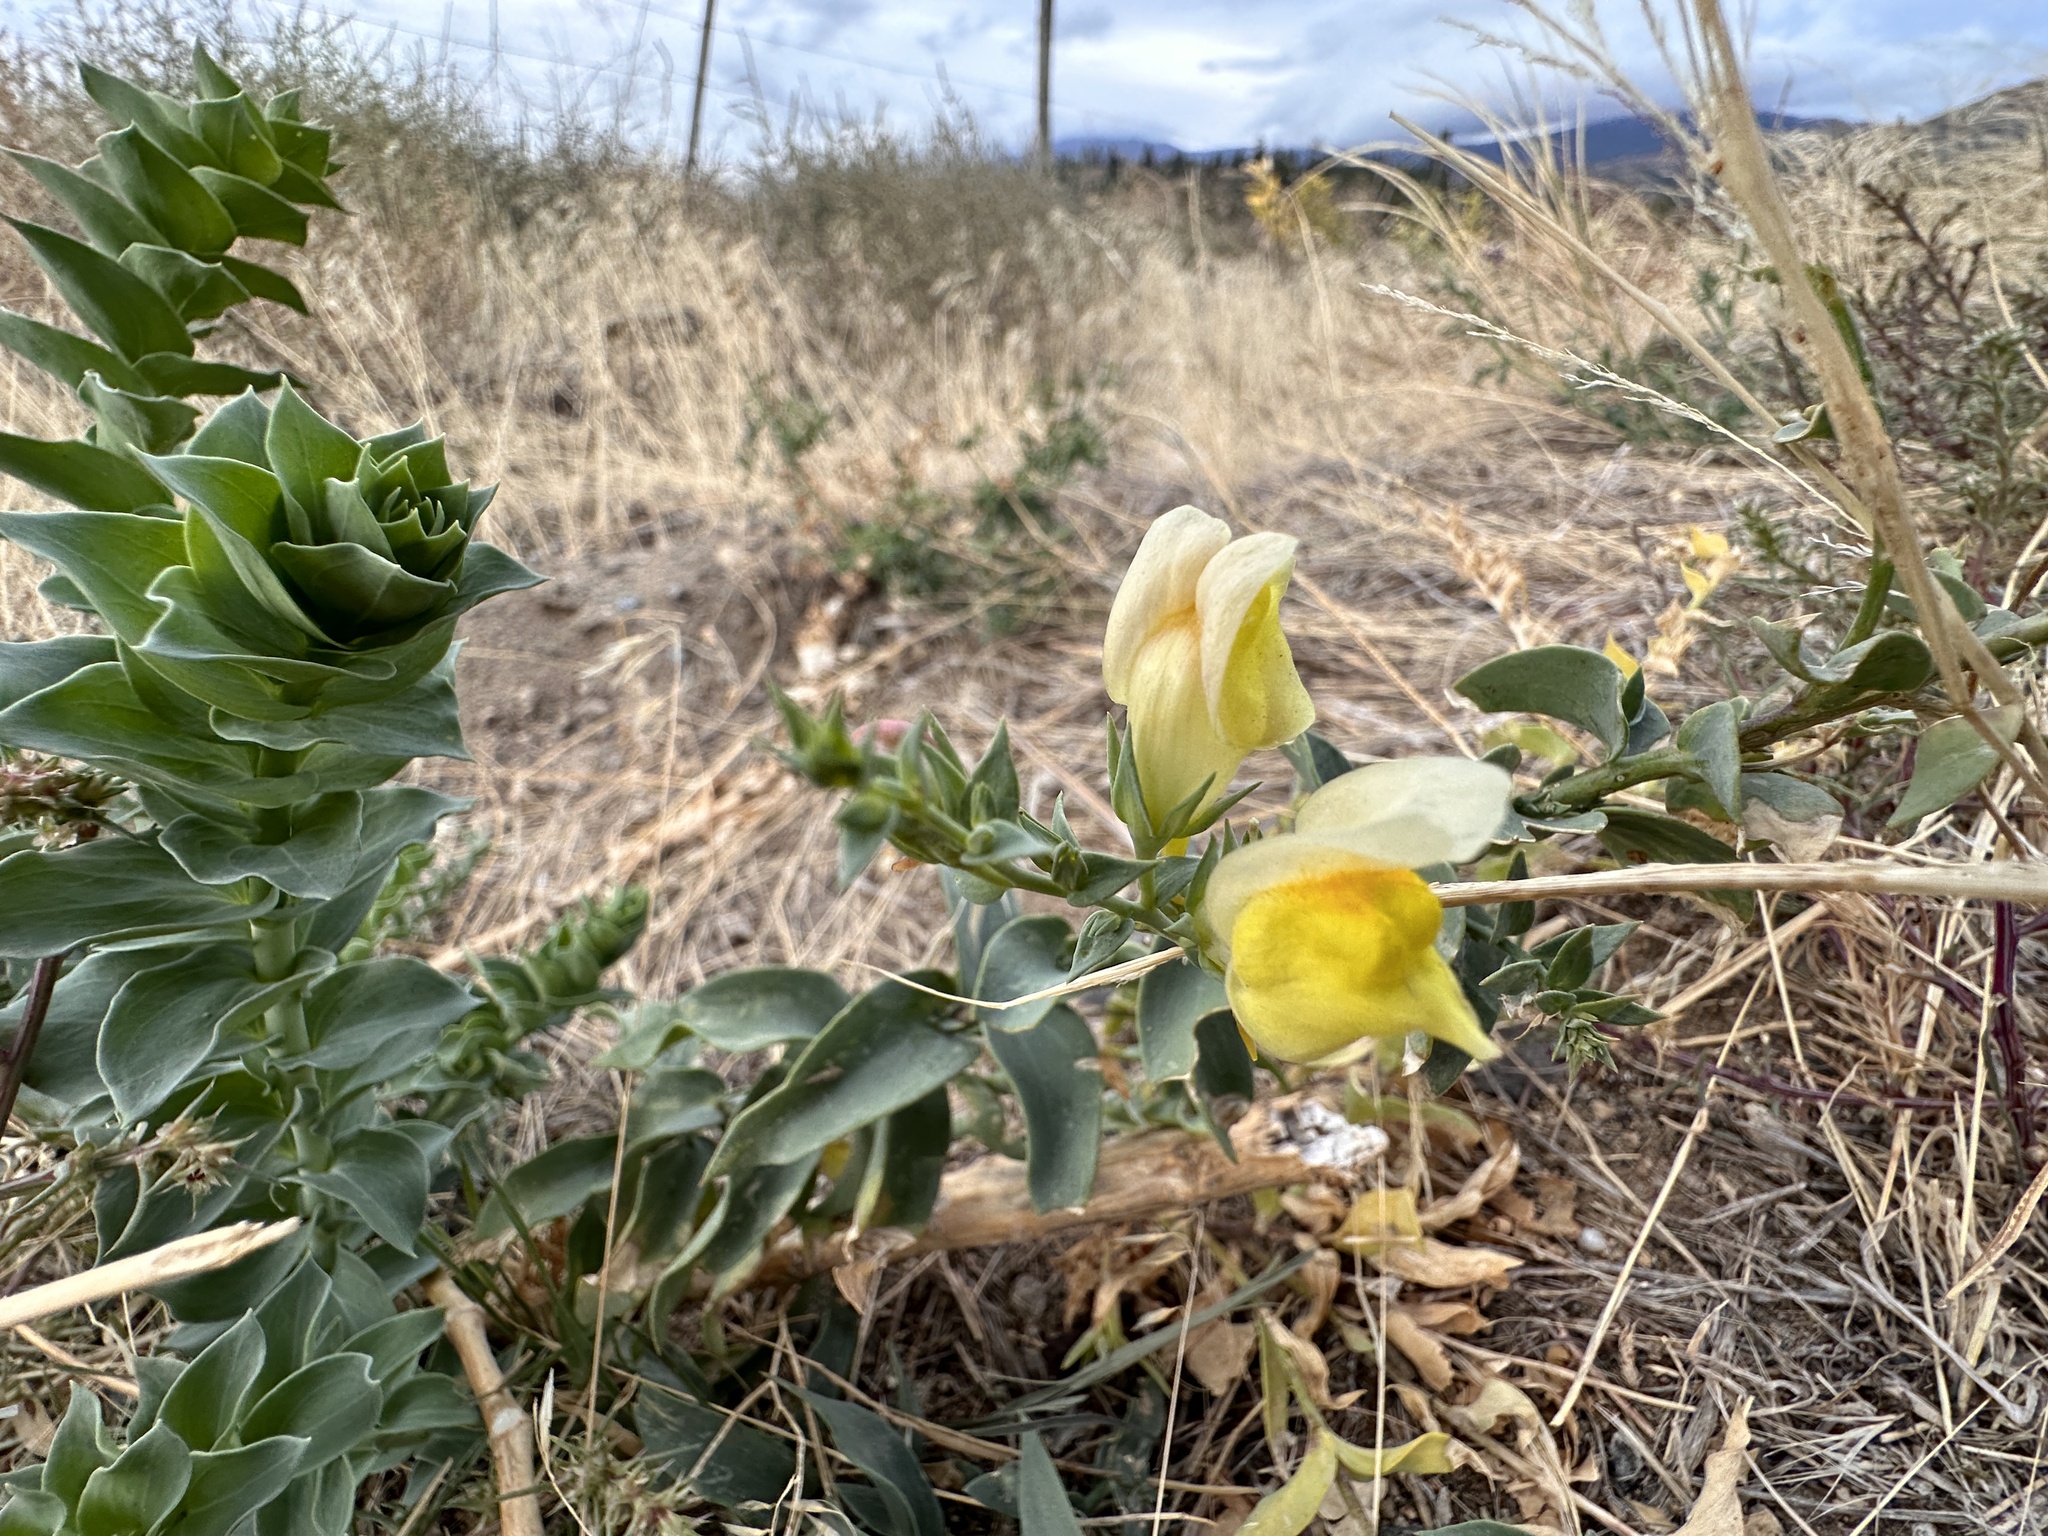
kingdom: Plantae
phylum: Tracheophyta
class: Magnoliopsida
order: Lamiales
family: Plantaginaceae
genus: Linaria
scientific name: Linaria dalmatica
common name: Dalmatian toadflax
